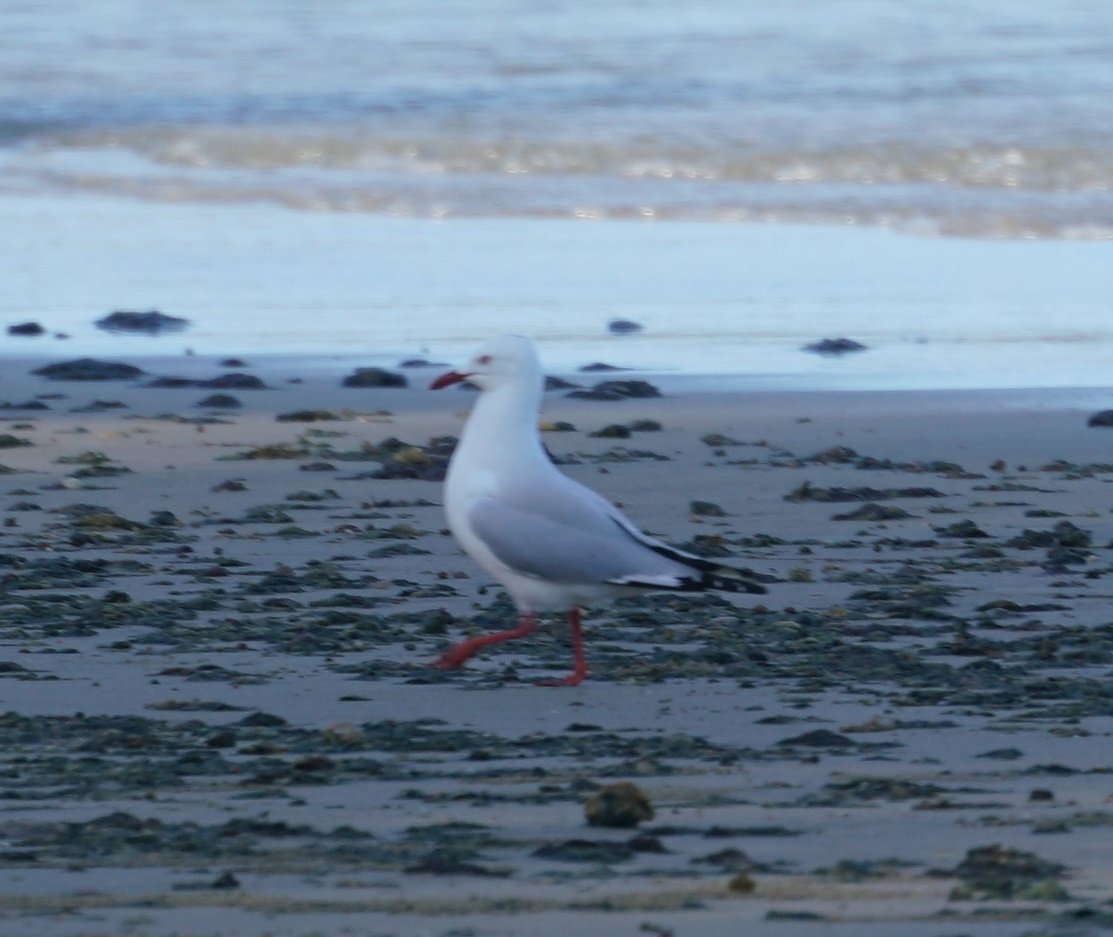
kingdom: Animalia
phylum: Chordata
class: Aves
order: Charadriiformes
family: Laridae
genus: Chroicocephalus
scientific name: Chroicocephalus novaehollandiae
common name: Silver gull
